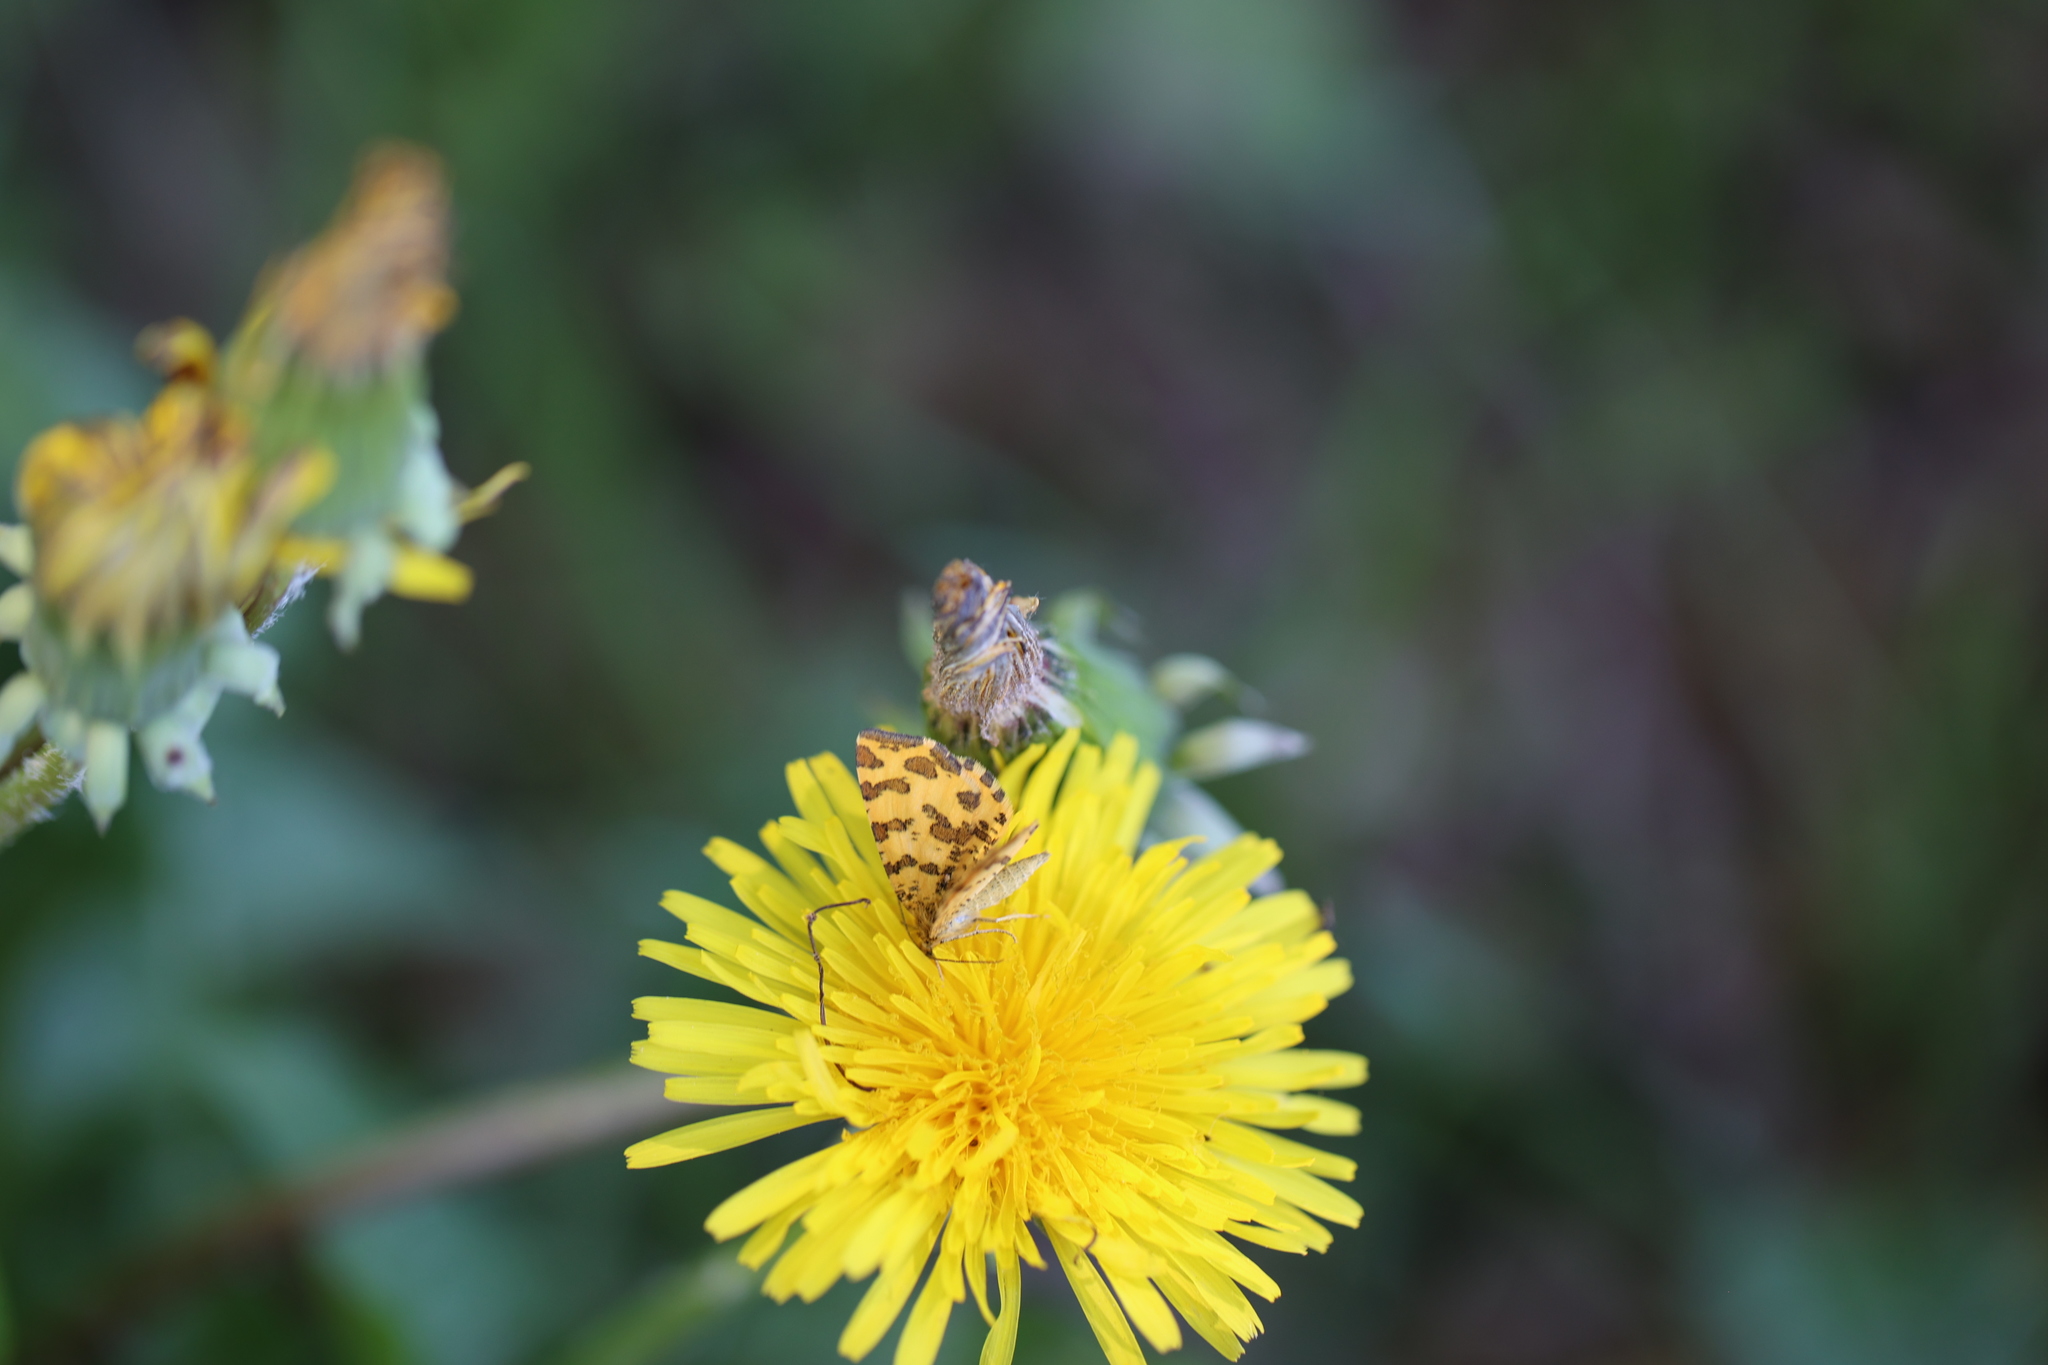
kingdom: Animalia
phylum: Arthropoda
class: Insecta
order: Lepidoptera
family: Geometridae
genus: Pseudopanthera
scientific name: Pseudopanthera macularia
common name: Speckled yellow
